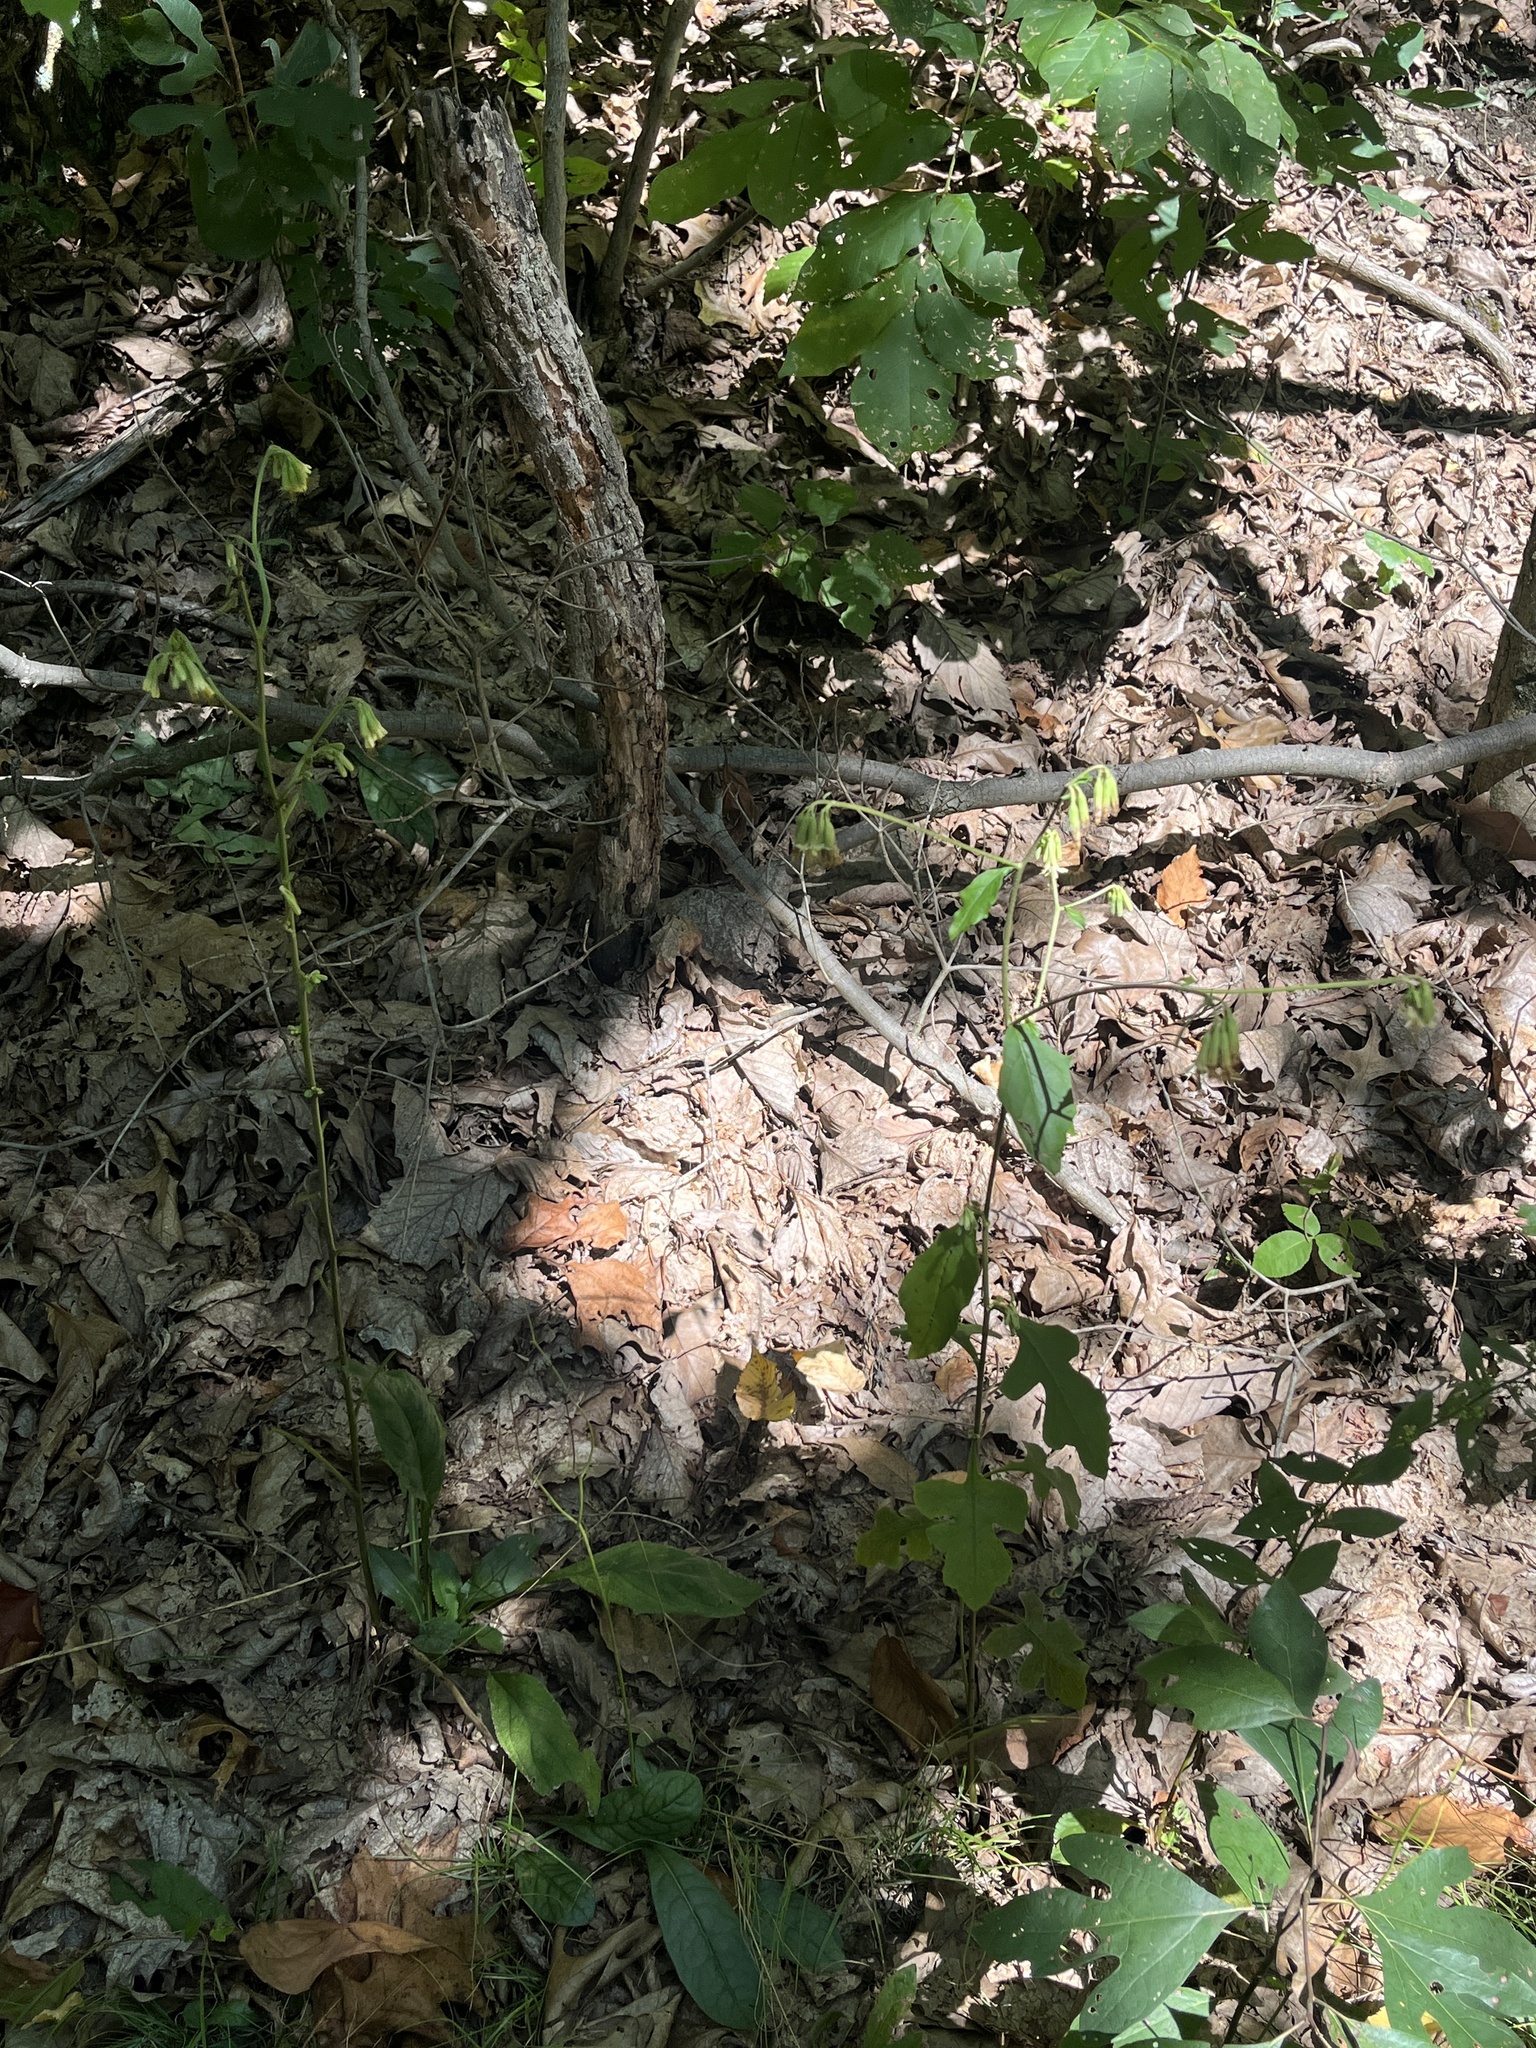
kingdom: Plantae
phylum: Tracheophyta
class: Magnoliopsida
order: Asterales
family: Asteraceae
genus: Nabalus
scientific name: Nabalus serpentarius
